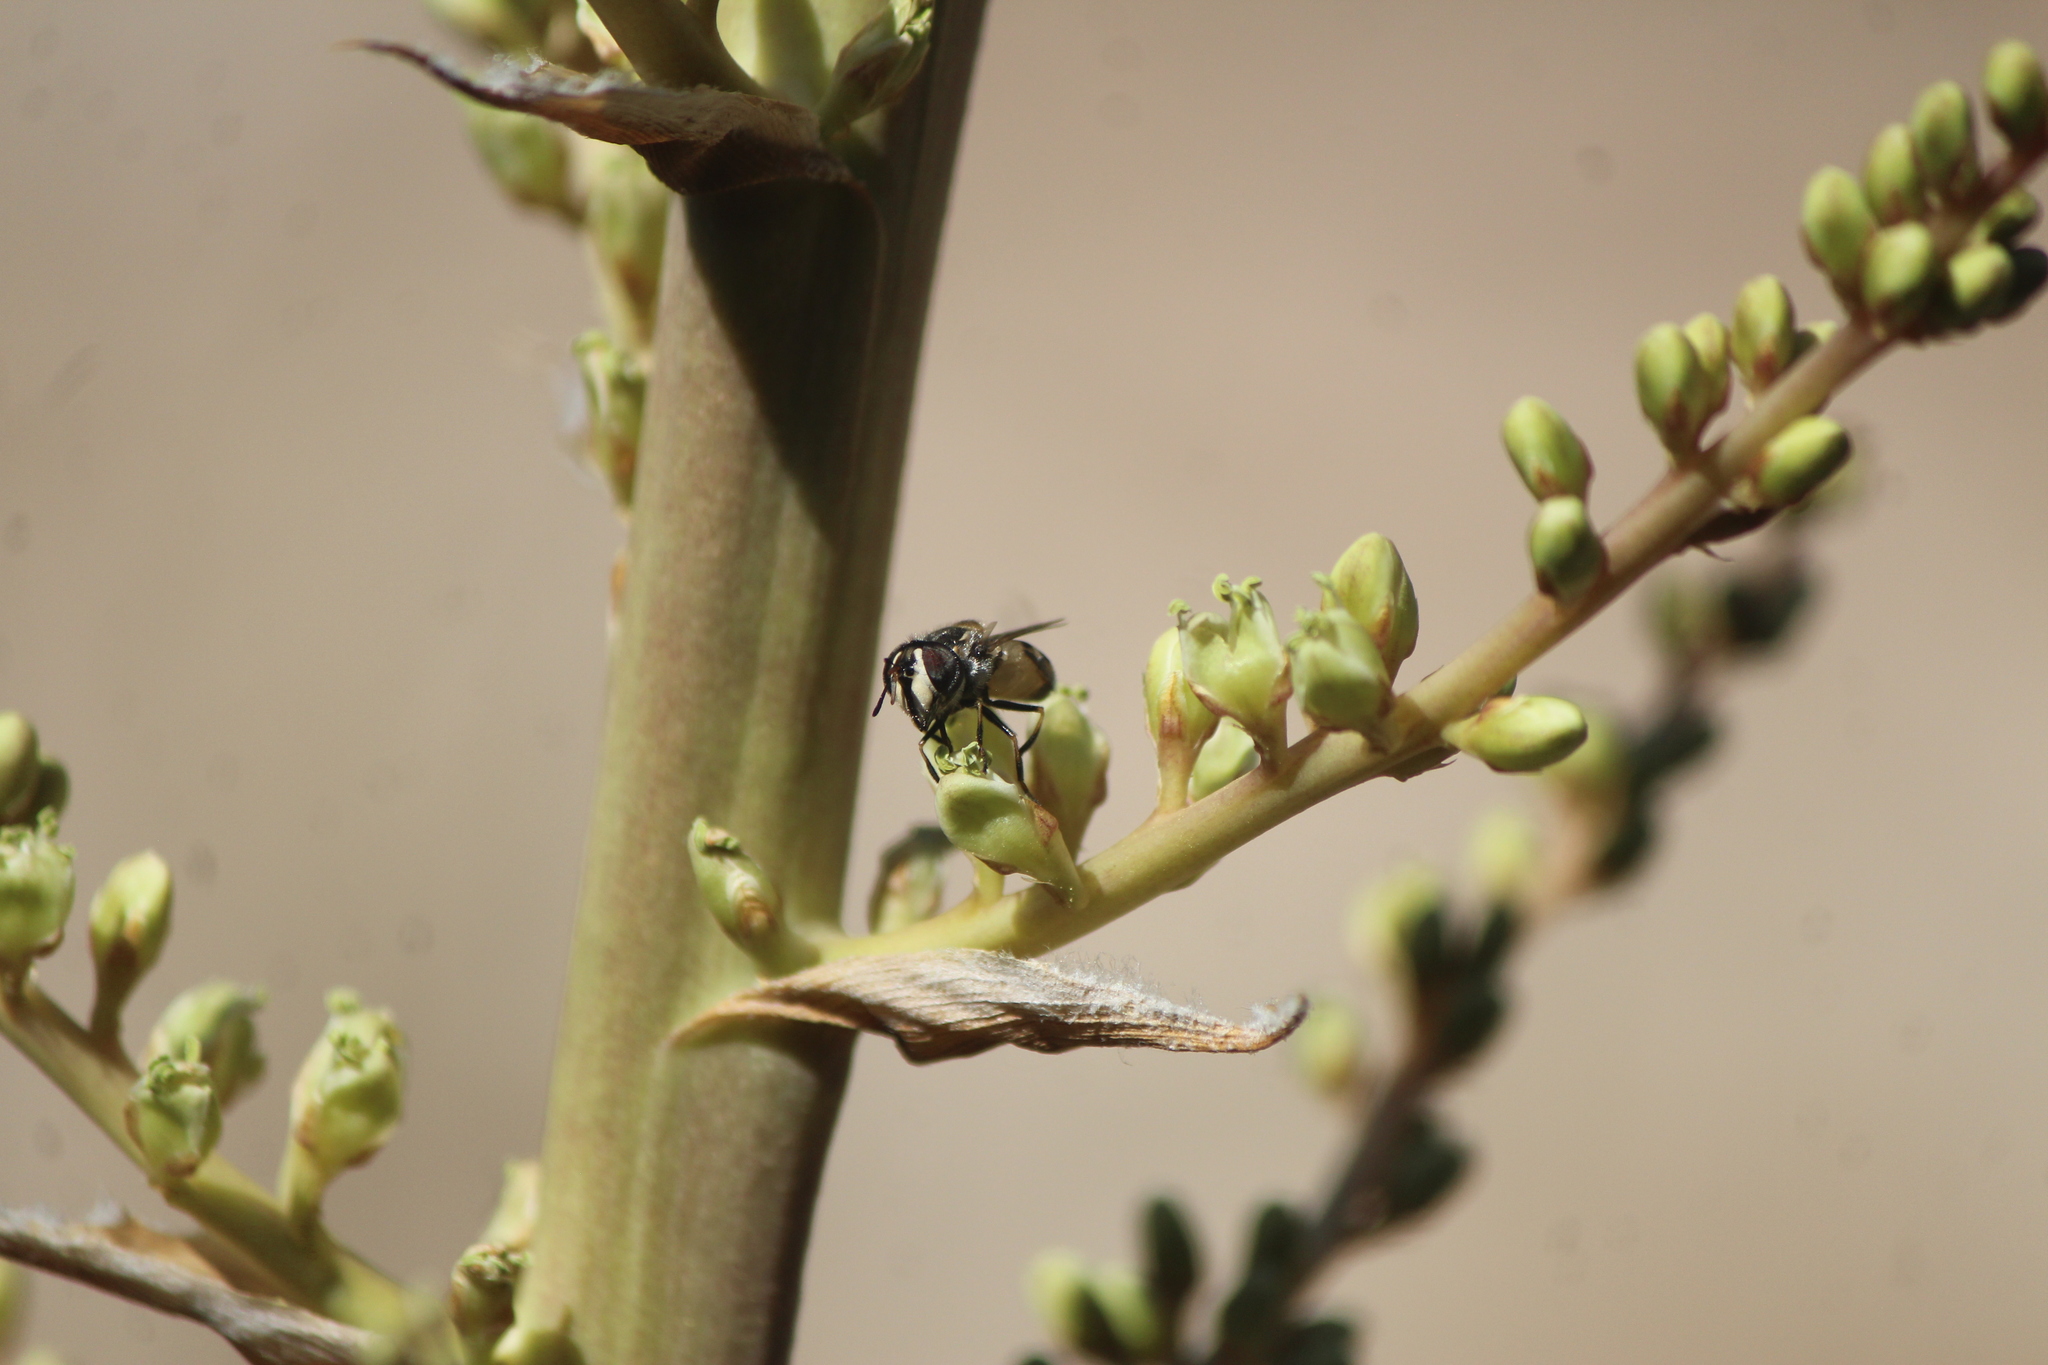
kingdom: Animalia
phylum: Arthropoda
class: Insecta
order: Diptera
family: Syrphidae
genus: Copestylum
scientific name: Copestylum marginatum
